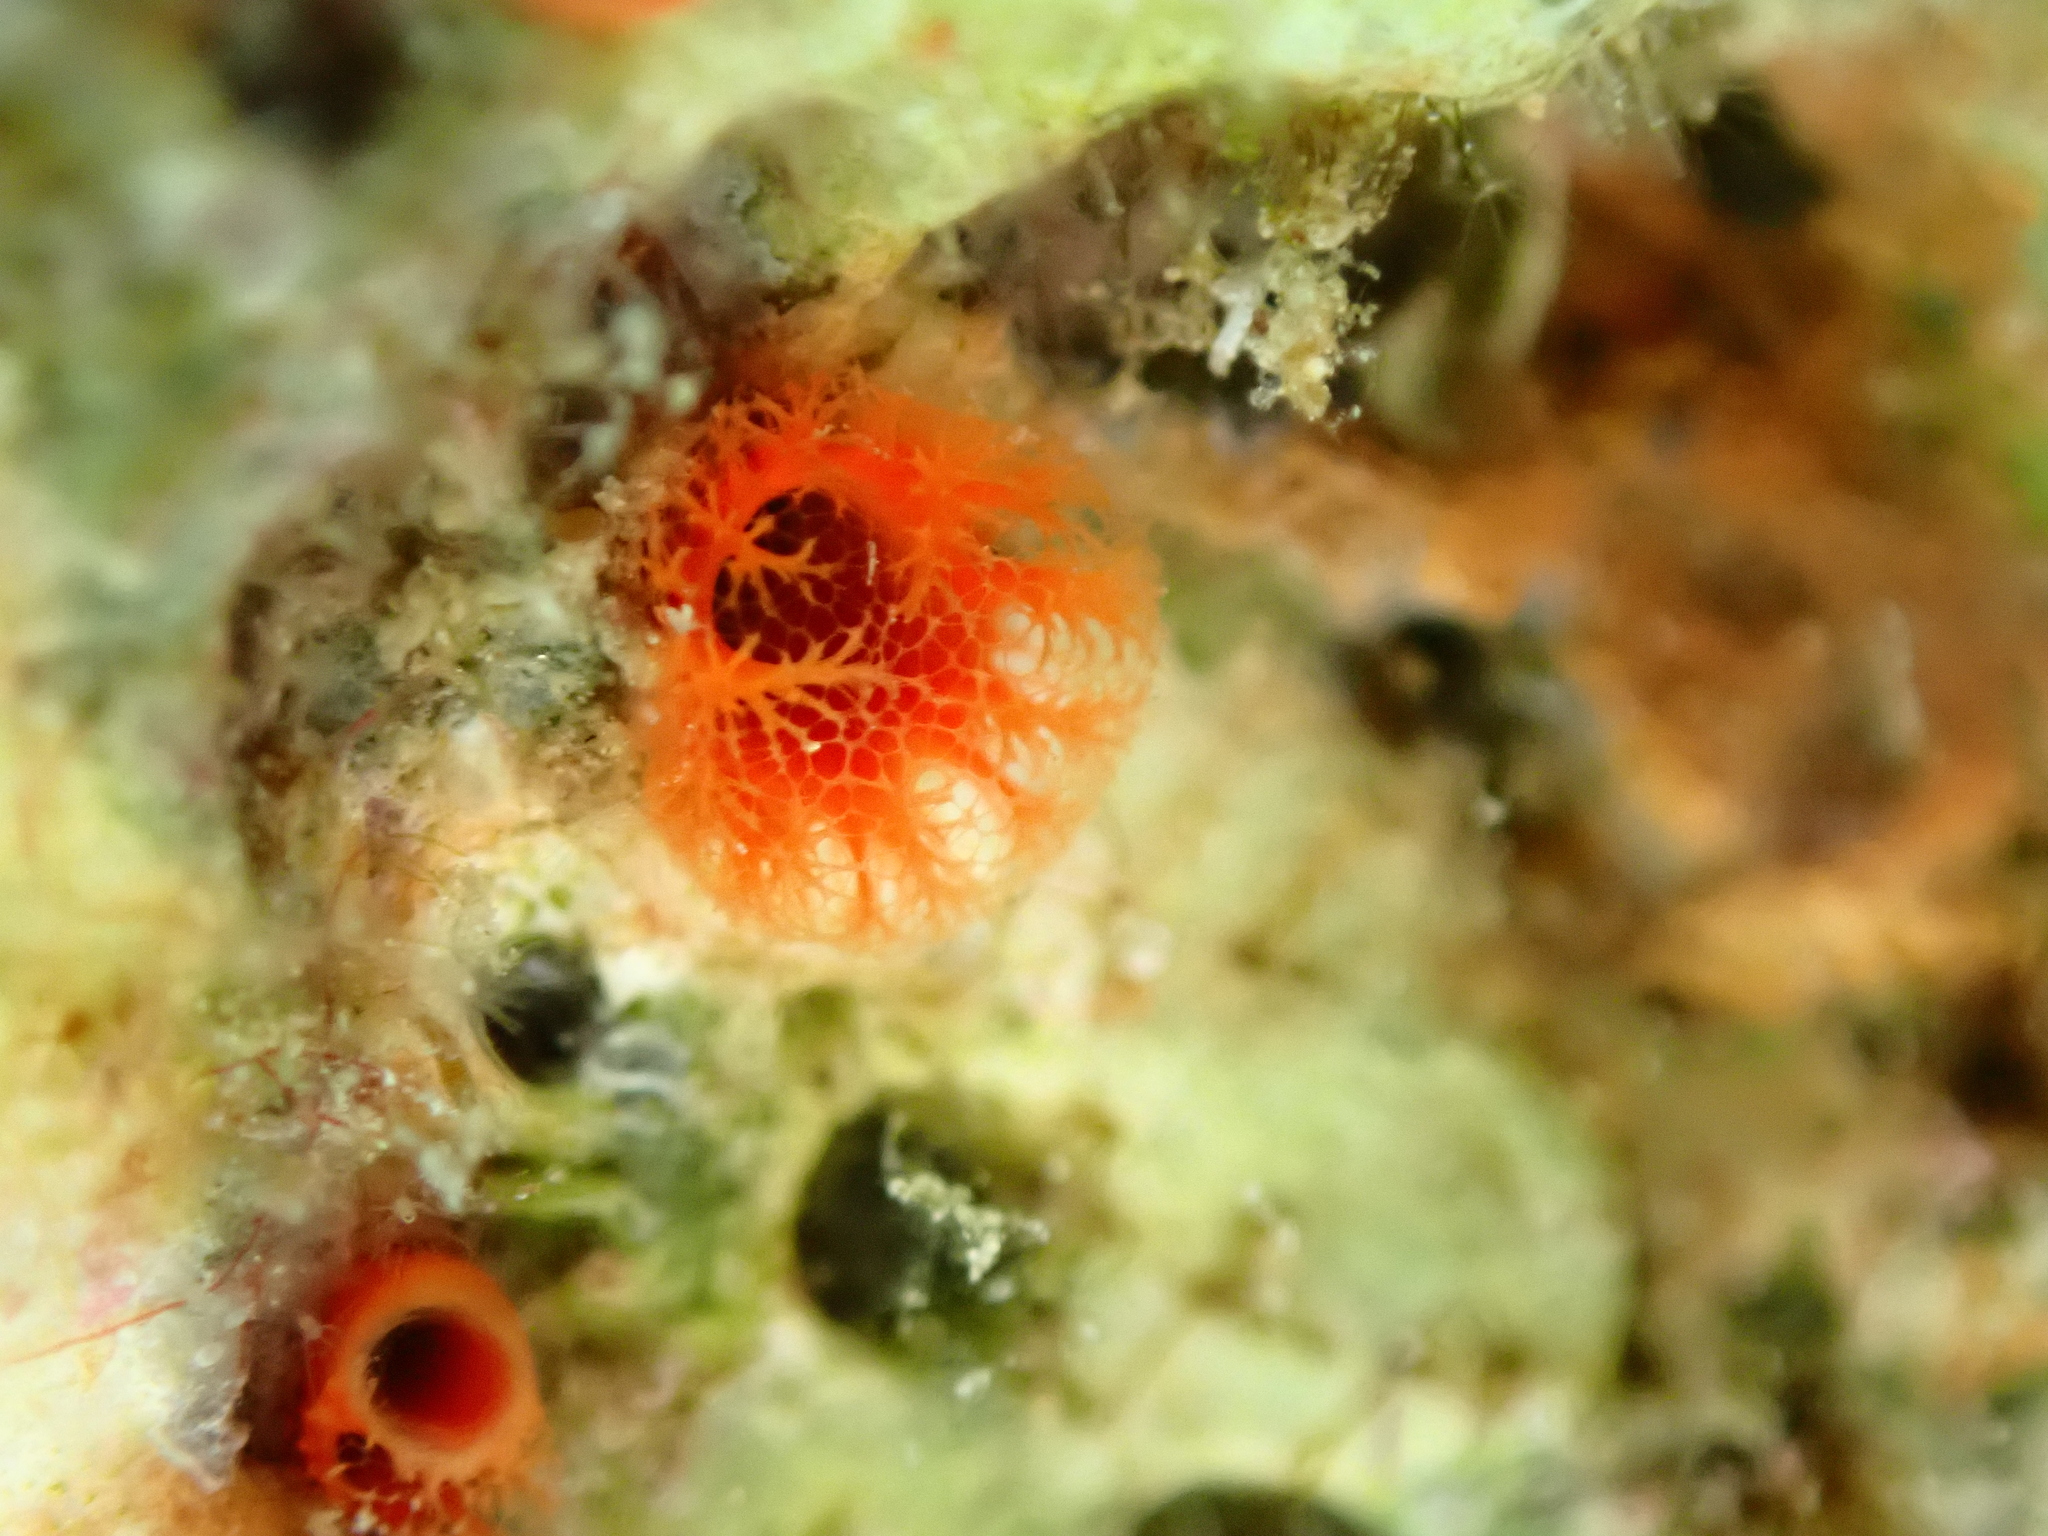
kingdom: Animalia
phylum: Porifera
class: Demospongiae
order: Clionaida
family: Clionaidae
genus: Cliona
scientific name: Cliona rhodensis
